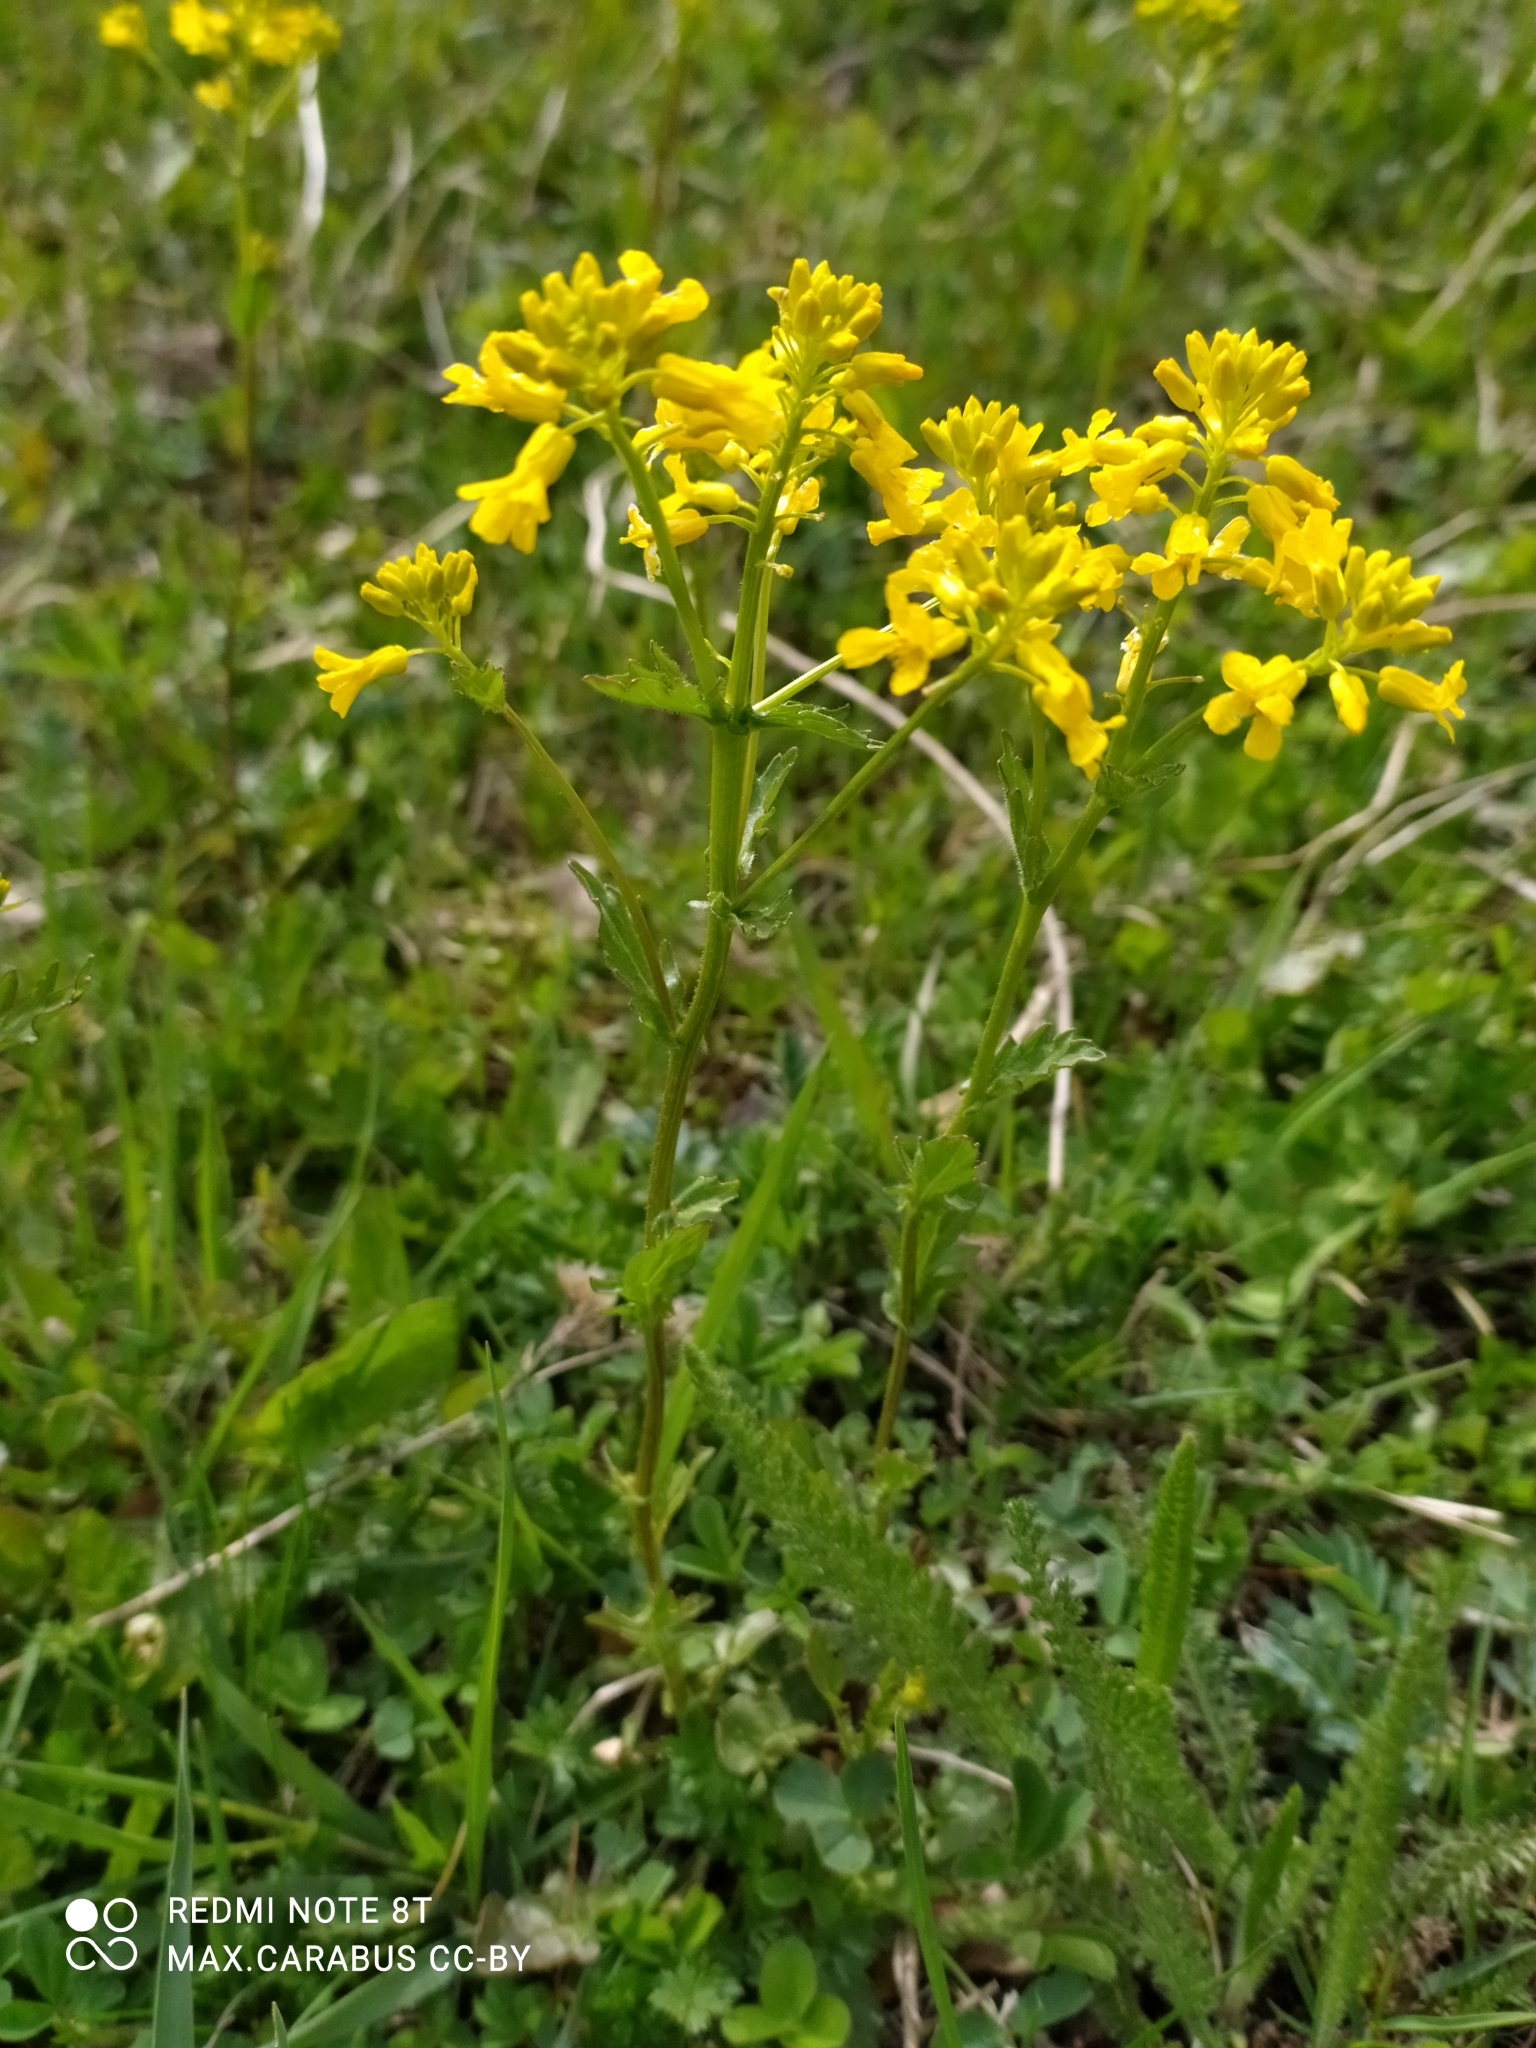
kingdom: Plantae
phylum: Tracheophyta
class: Magnoliopsida
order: Brassicales
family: Brassicaceae
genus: Barbarea
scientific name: Barbarea vulgaris
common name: Cressy-greens
